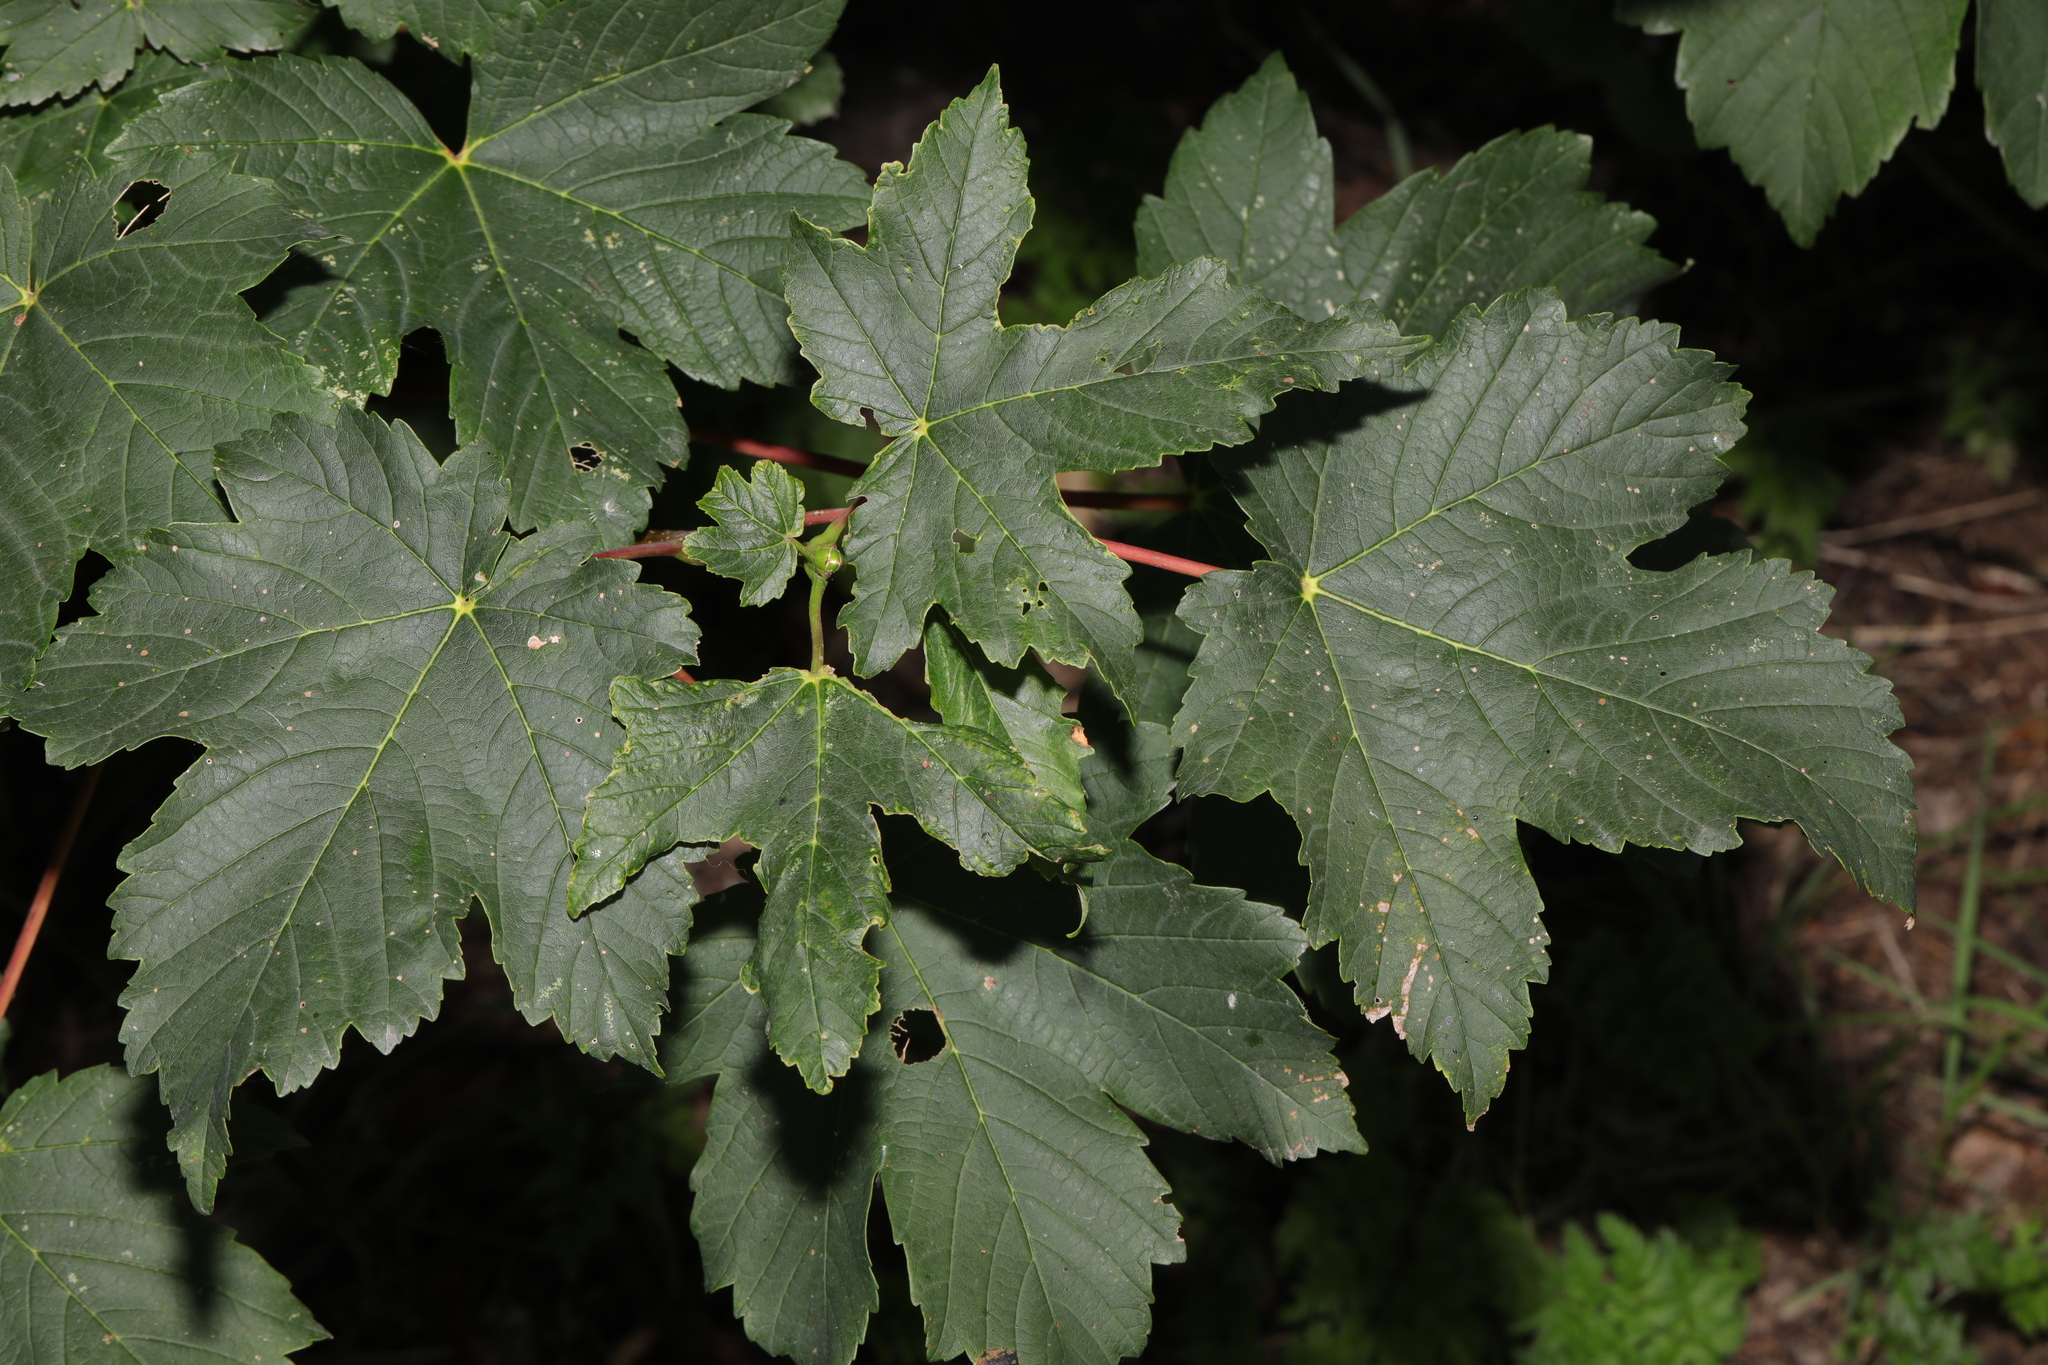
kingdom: Plantae
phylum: Tracheophyta
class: Magnoliopsida
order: Sapindales
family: Sapindaceae
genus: Acer
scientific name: Acer pseudoplatanus
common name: Sycamore
